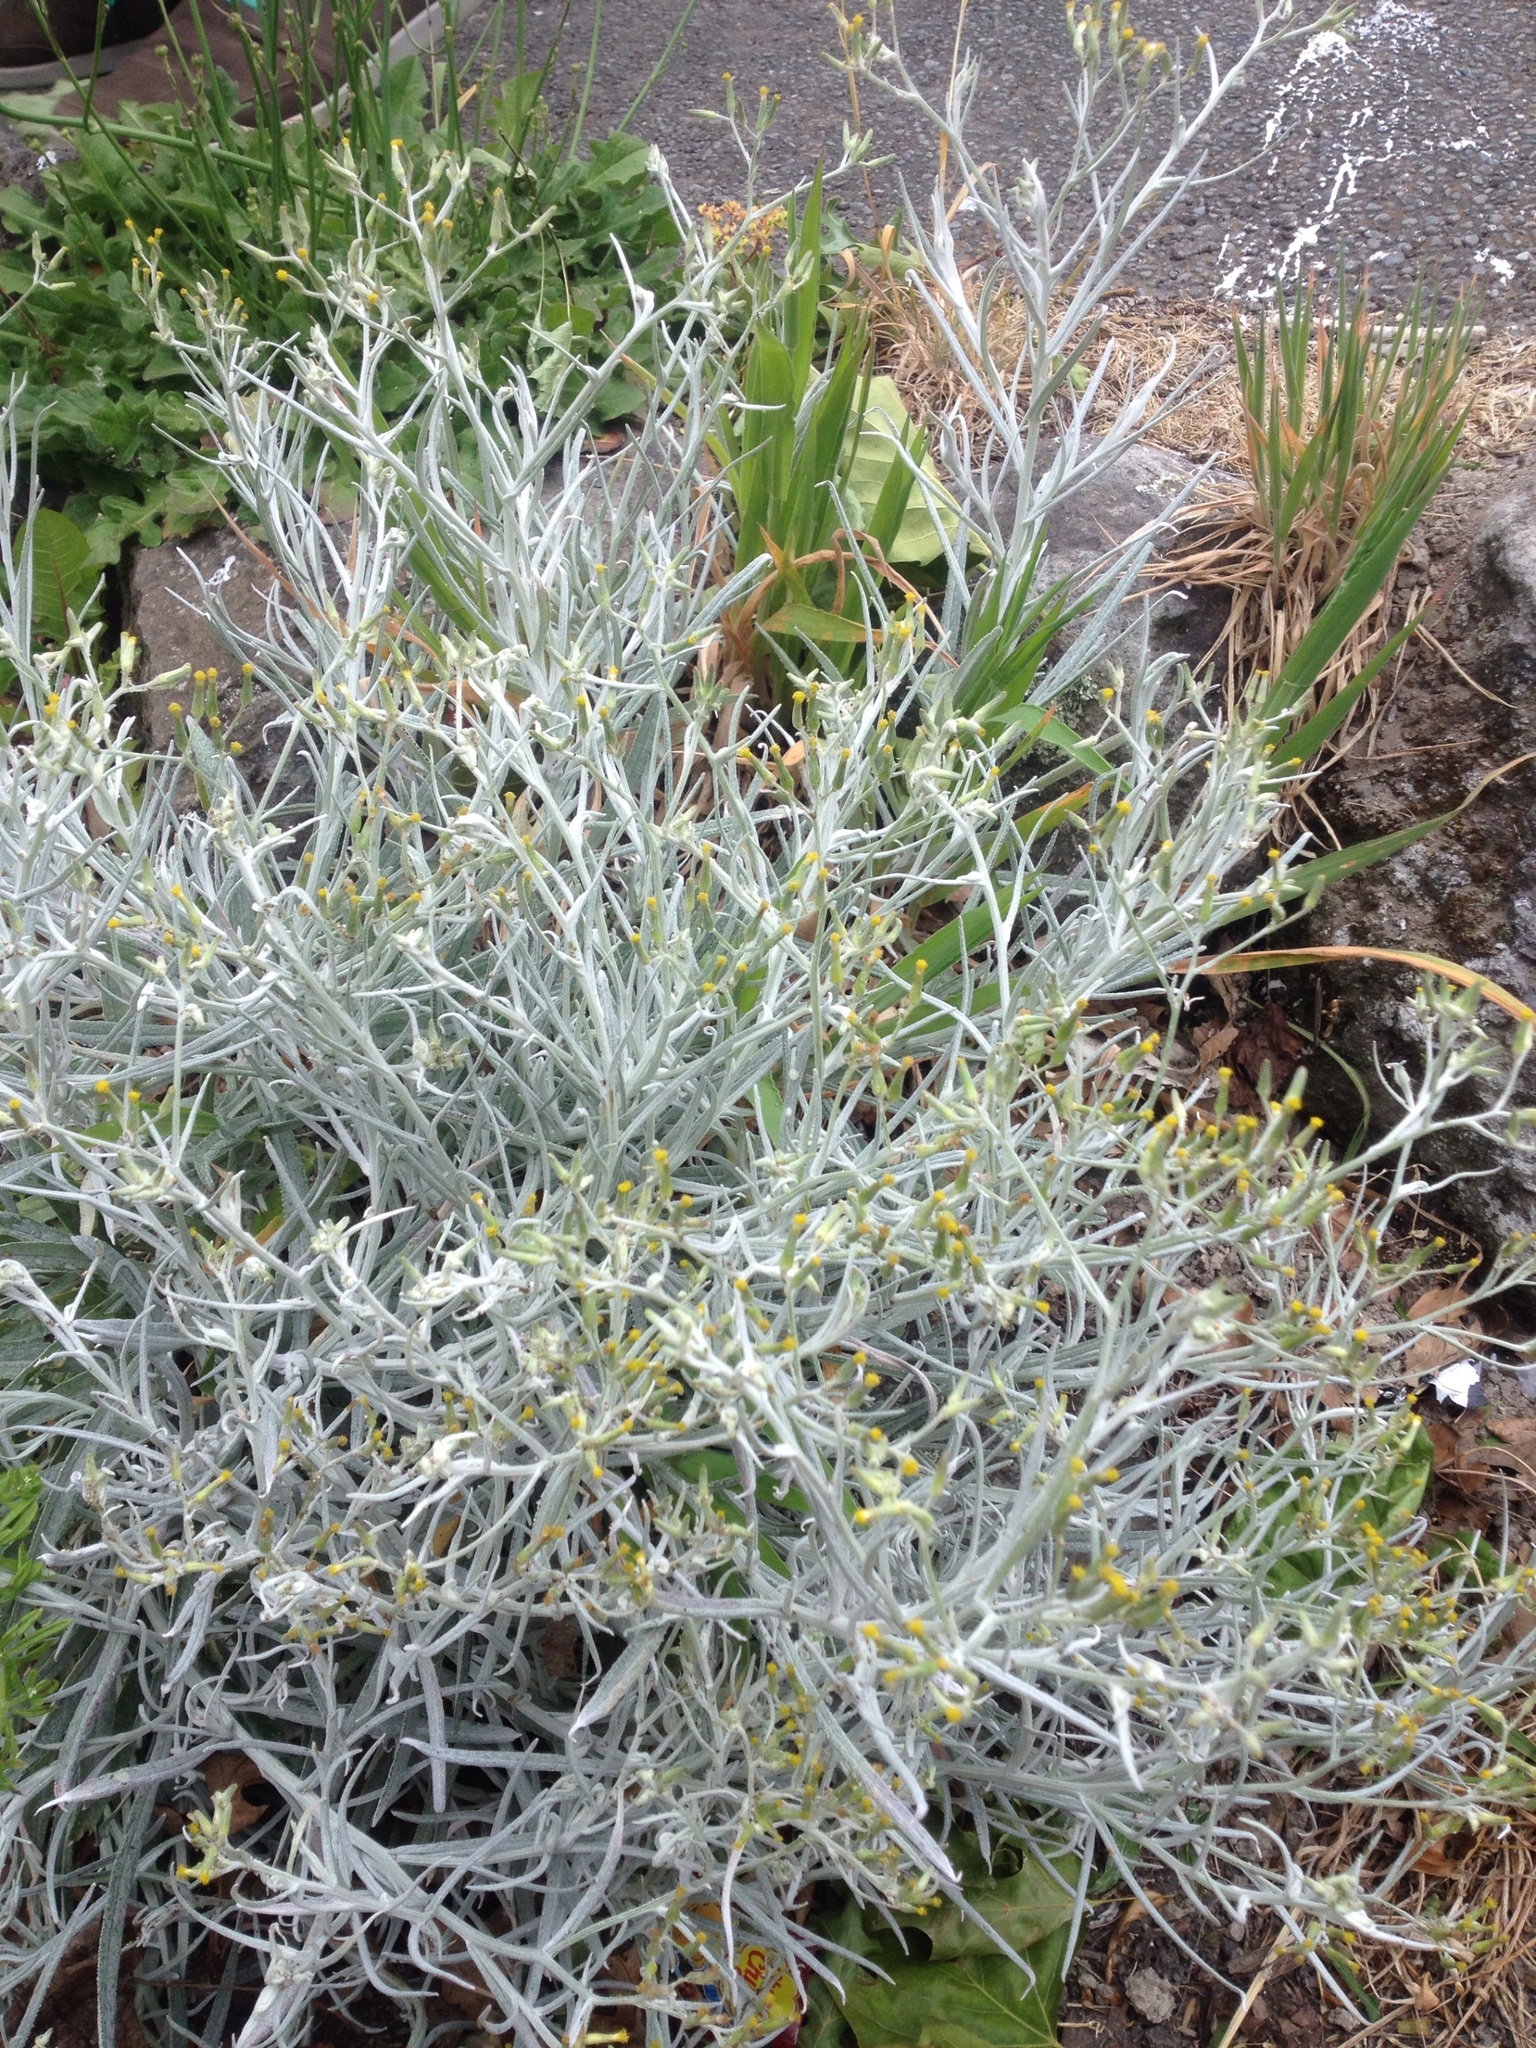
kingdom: Plantae
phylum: Tracheophyta
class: Magnoliopsida
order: Asterales
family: Asteraceae
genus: Senecio
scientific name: Senecio quadridentatus
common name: Cotton fireweed
